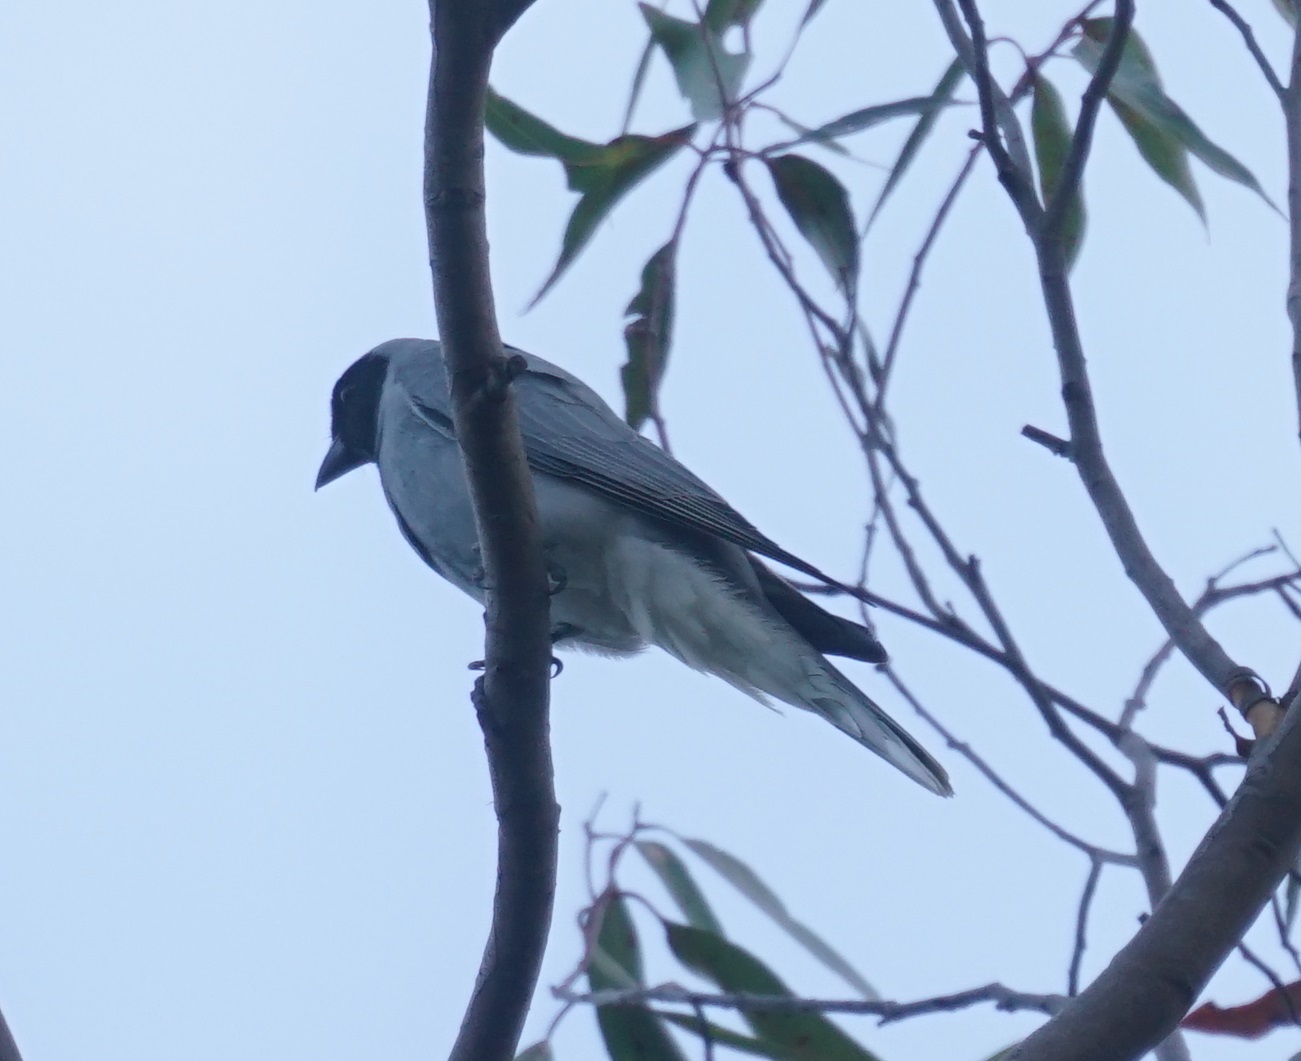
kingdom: Animalia
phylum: Chordata
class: Aves
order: Passeriformes
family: Campephagidae
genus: Coracina
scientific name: Coracina novaehollandiae
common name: Black-faced cuckooshrike
